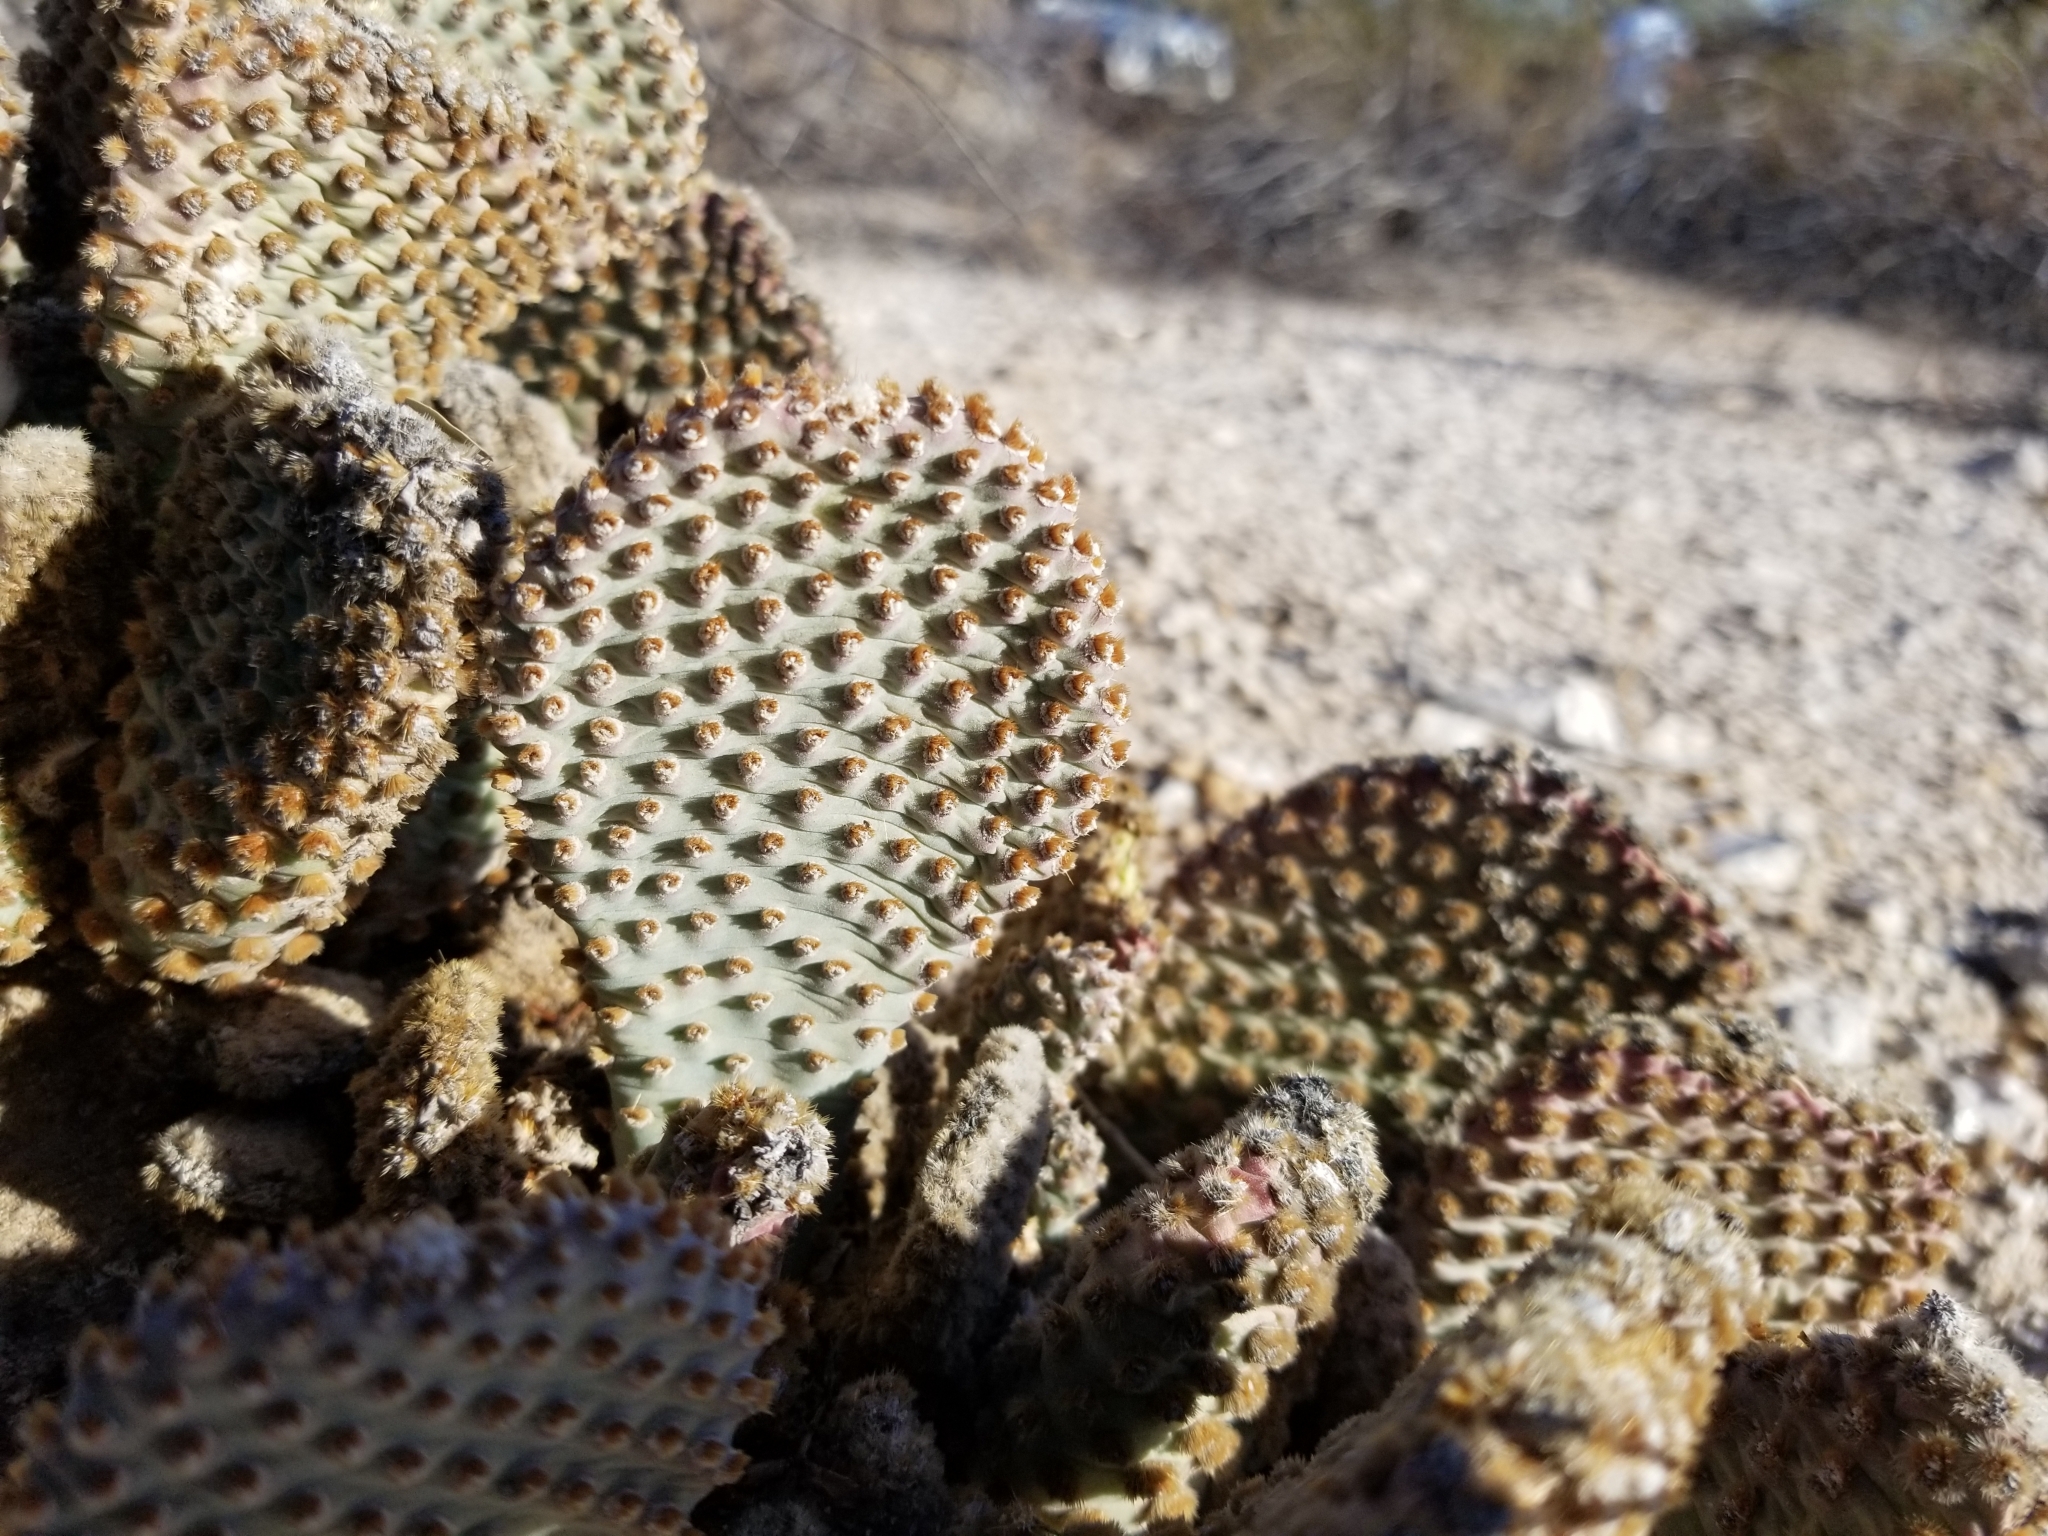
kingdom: Plantae
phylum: Tracheophyta
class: Magnoliopsida
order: Caryophyllales
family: Cactaceae
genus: Opuntia
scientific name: Opuntia basilaris
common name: Beavertail prickly-pear
